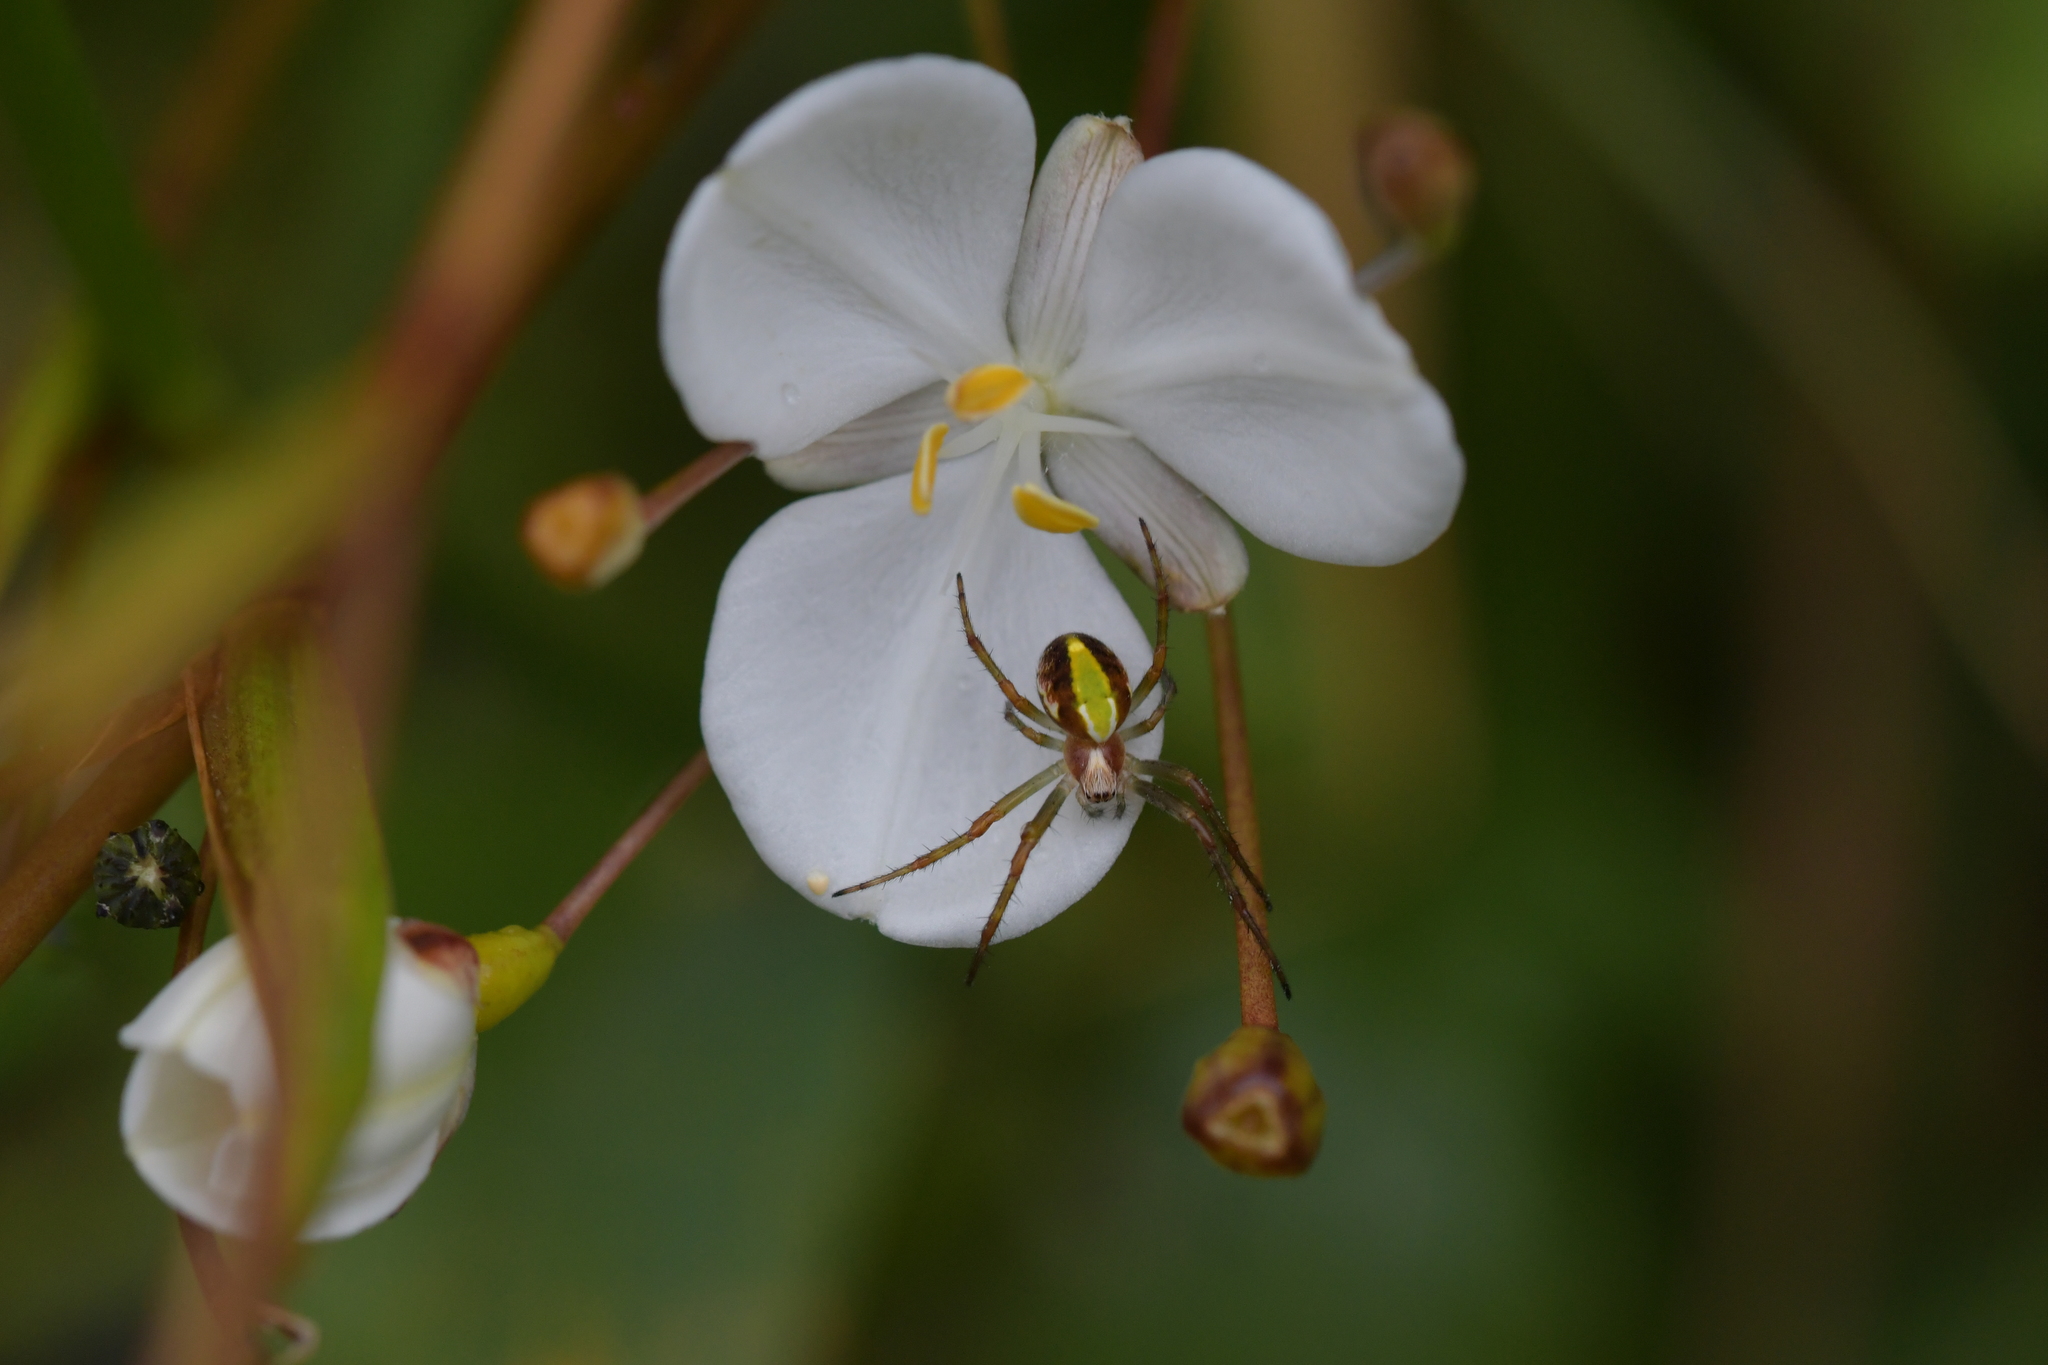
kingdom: Animalia
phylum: Arthropoda
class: Arachnida
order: Araneae
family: Araneidae
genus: Novaranea
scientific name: Novaranea queribunda
